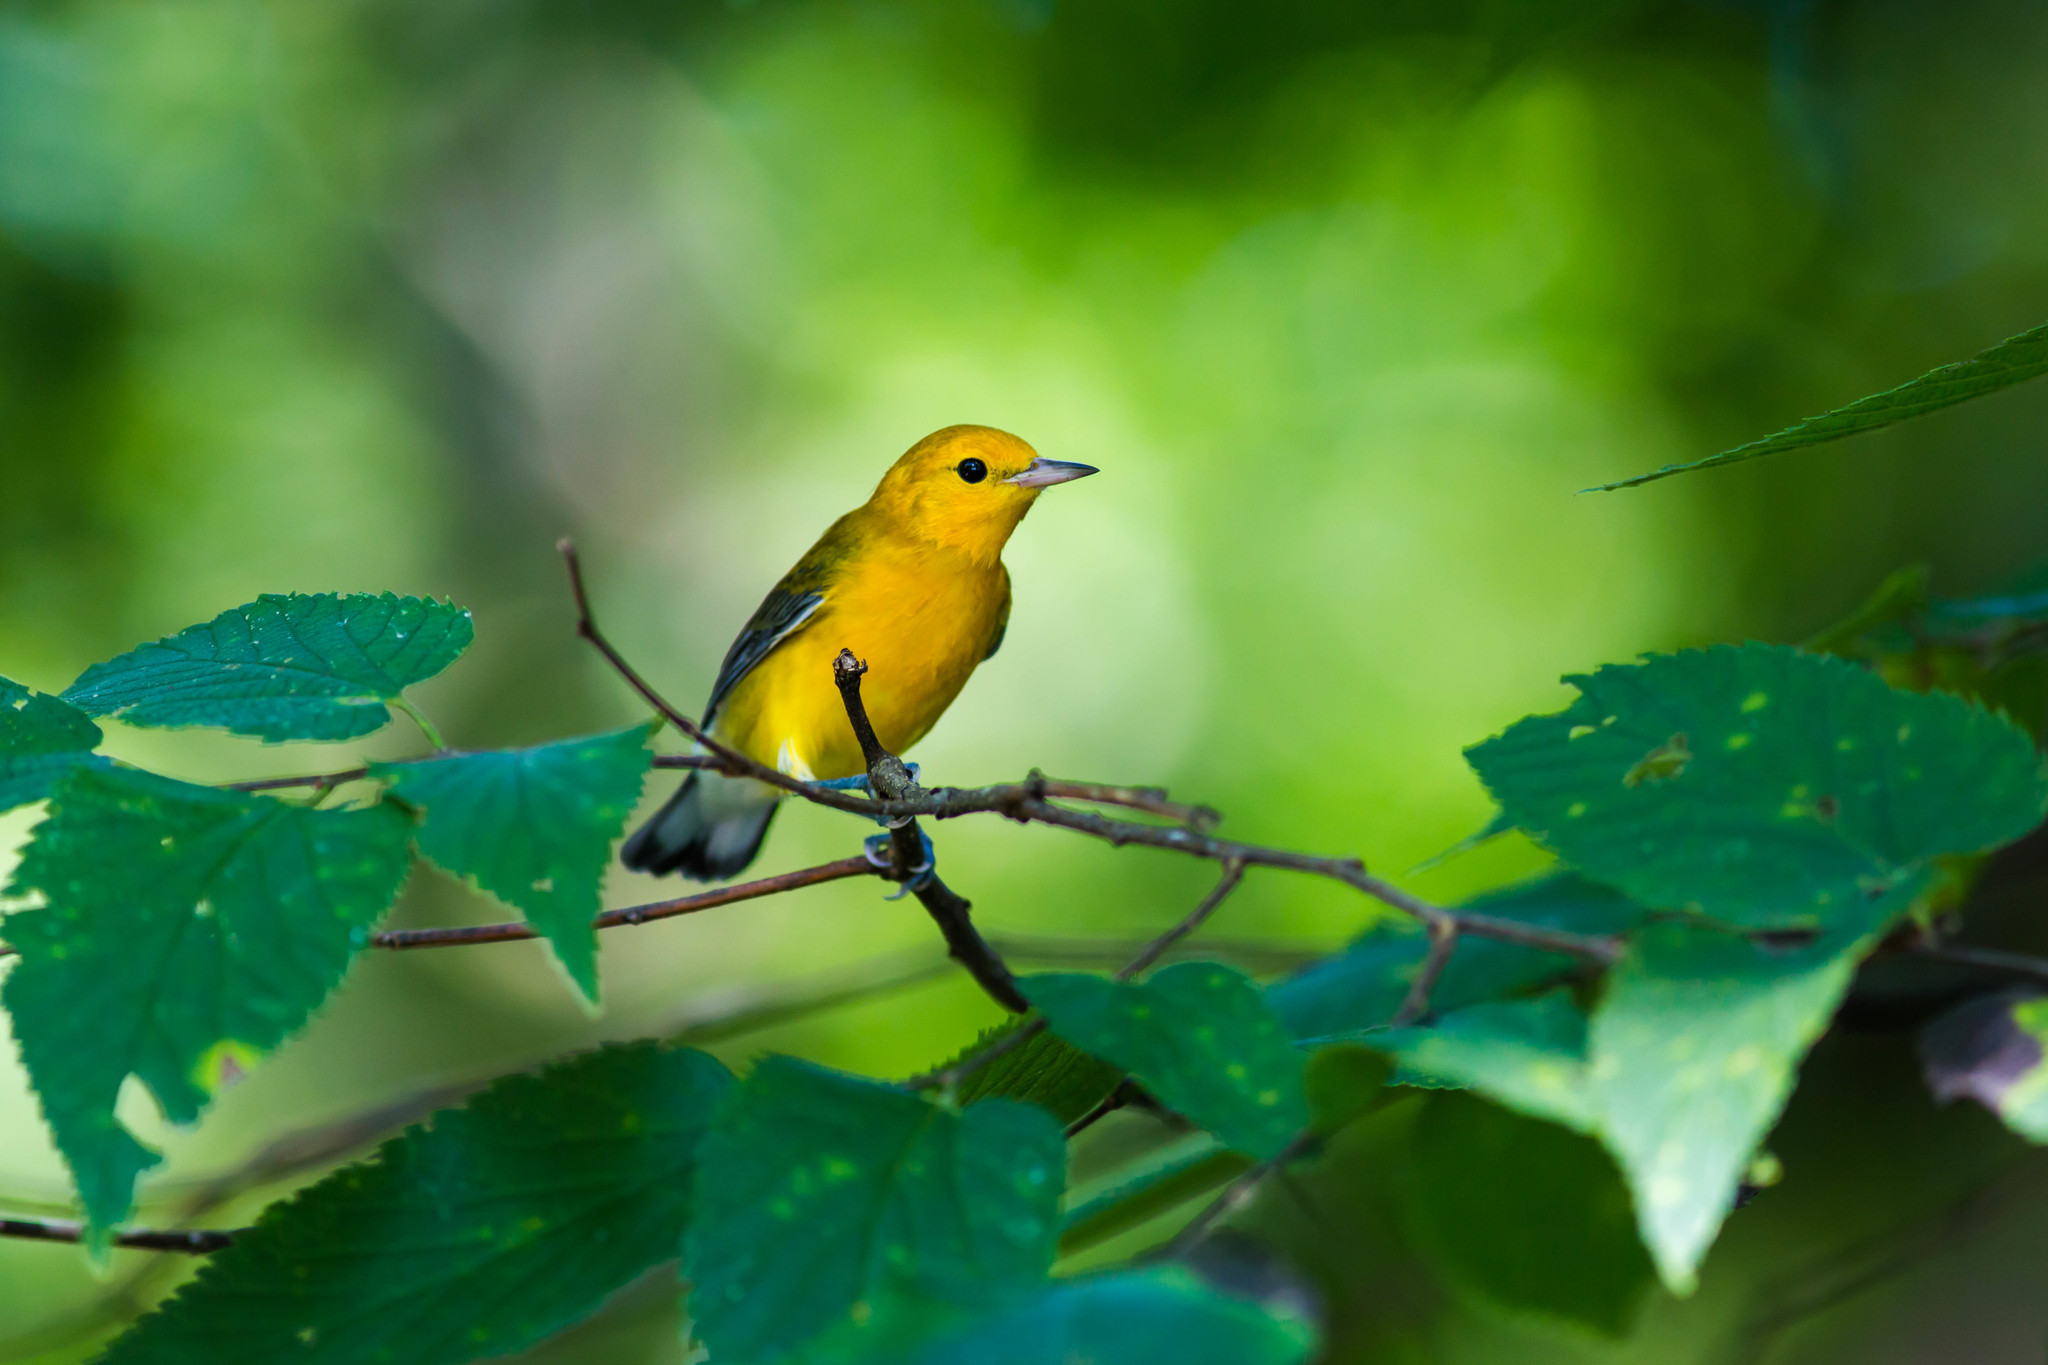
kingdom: Animalia
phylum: Chordata
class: Aves
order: Passeriformes
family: Parulidae
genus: Protonotaria
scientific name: Protonotaria citrea
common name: Prothonotary warbler
